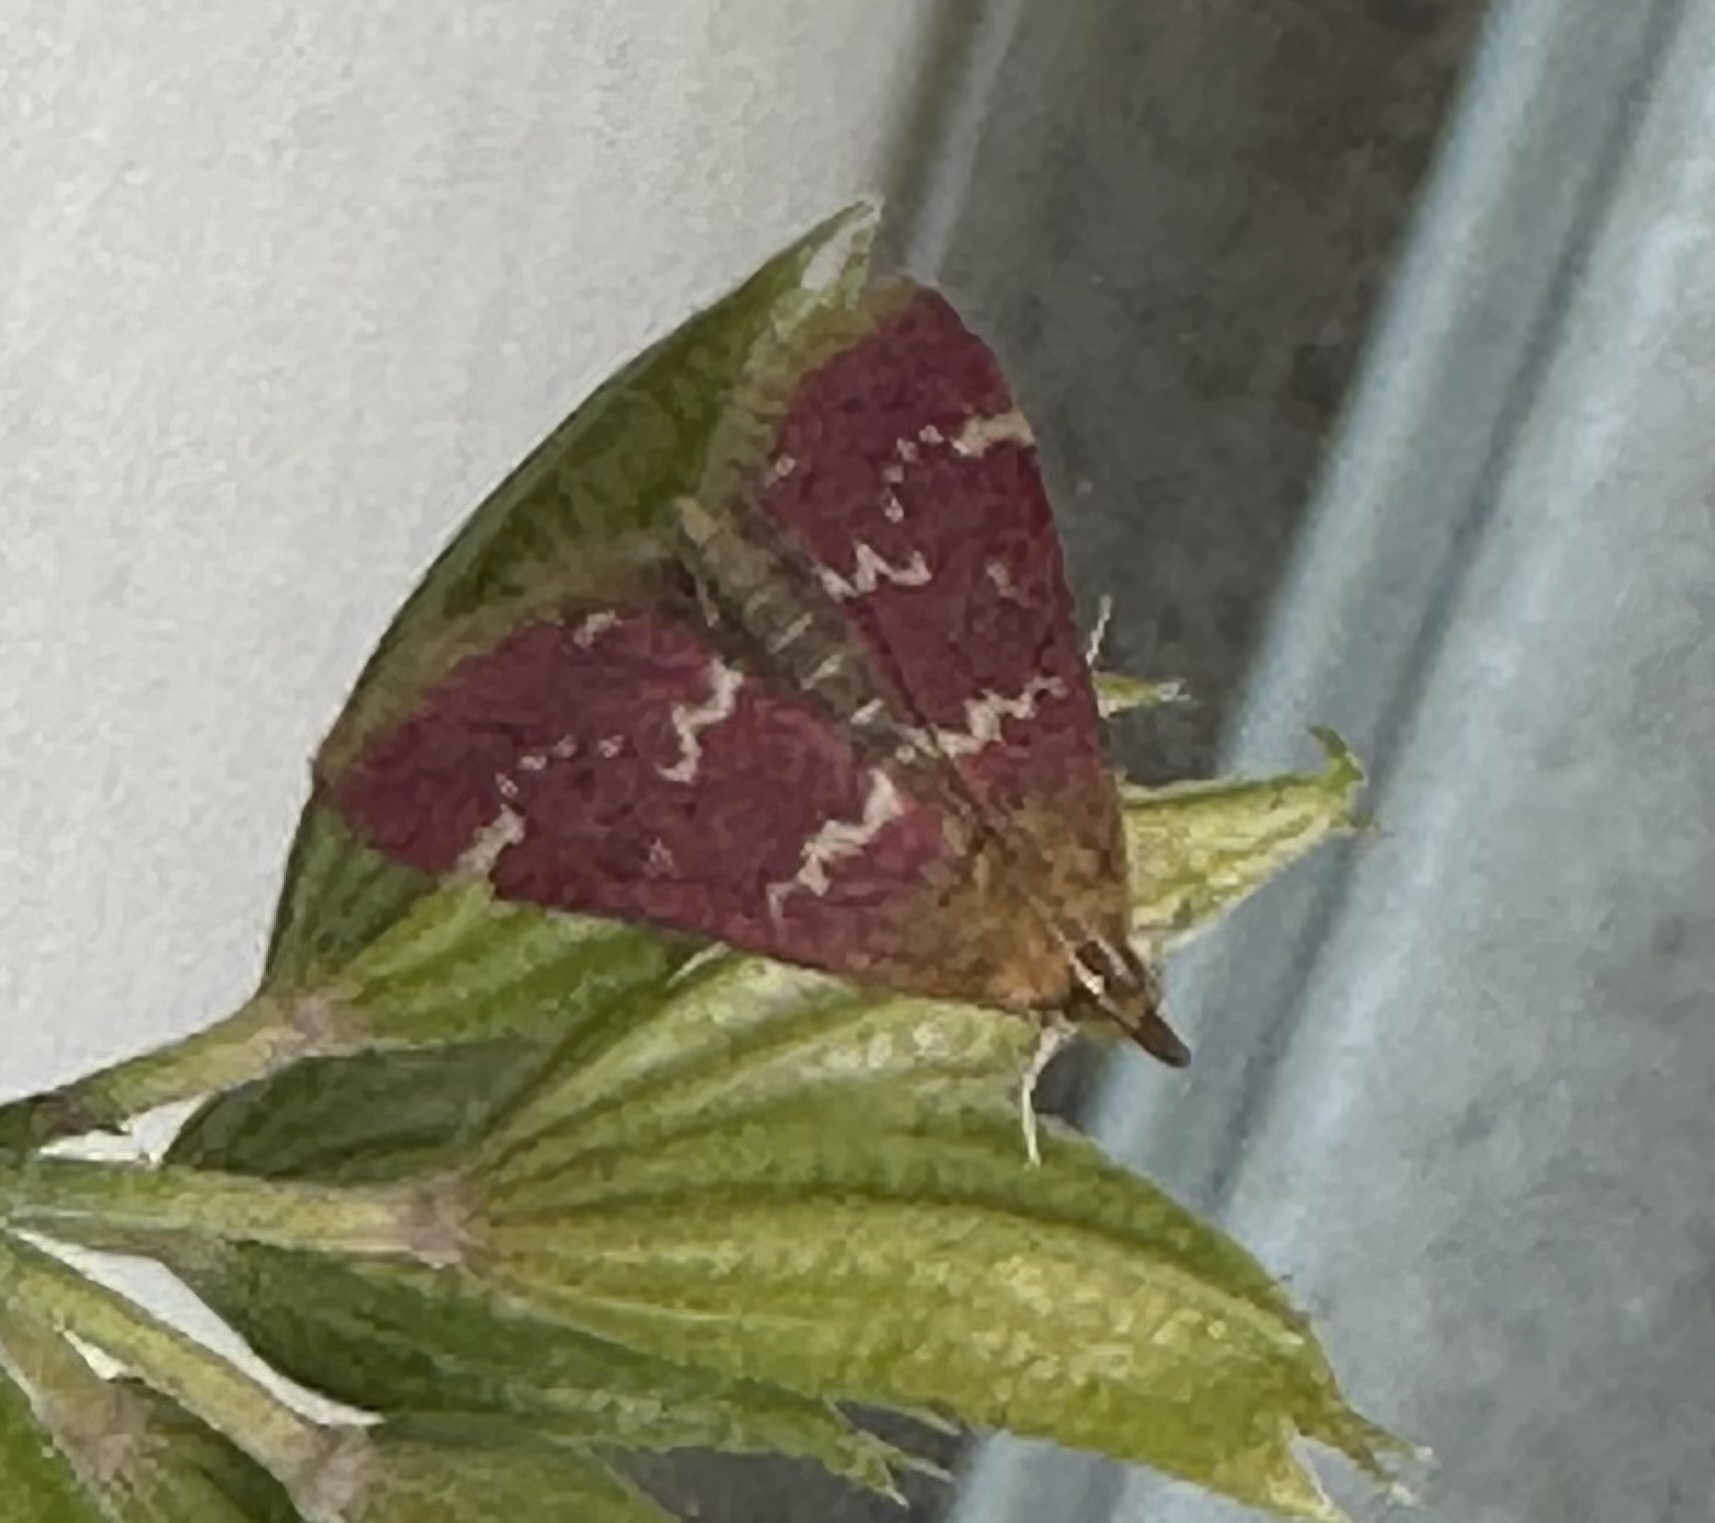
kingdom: Animalia
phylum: Arthropoda
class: Insecta
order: Lepidoptera
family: Crambidae
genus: Pyrausta
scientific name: Pyrausta signatalis
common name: Raspberry pyrausta moth
